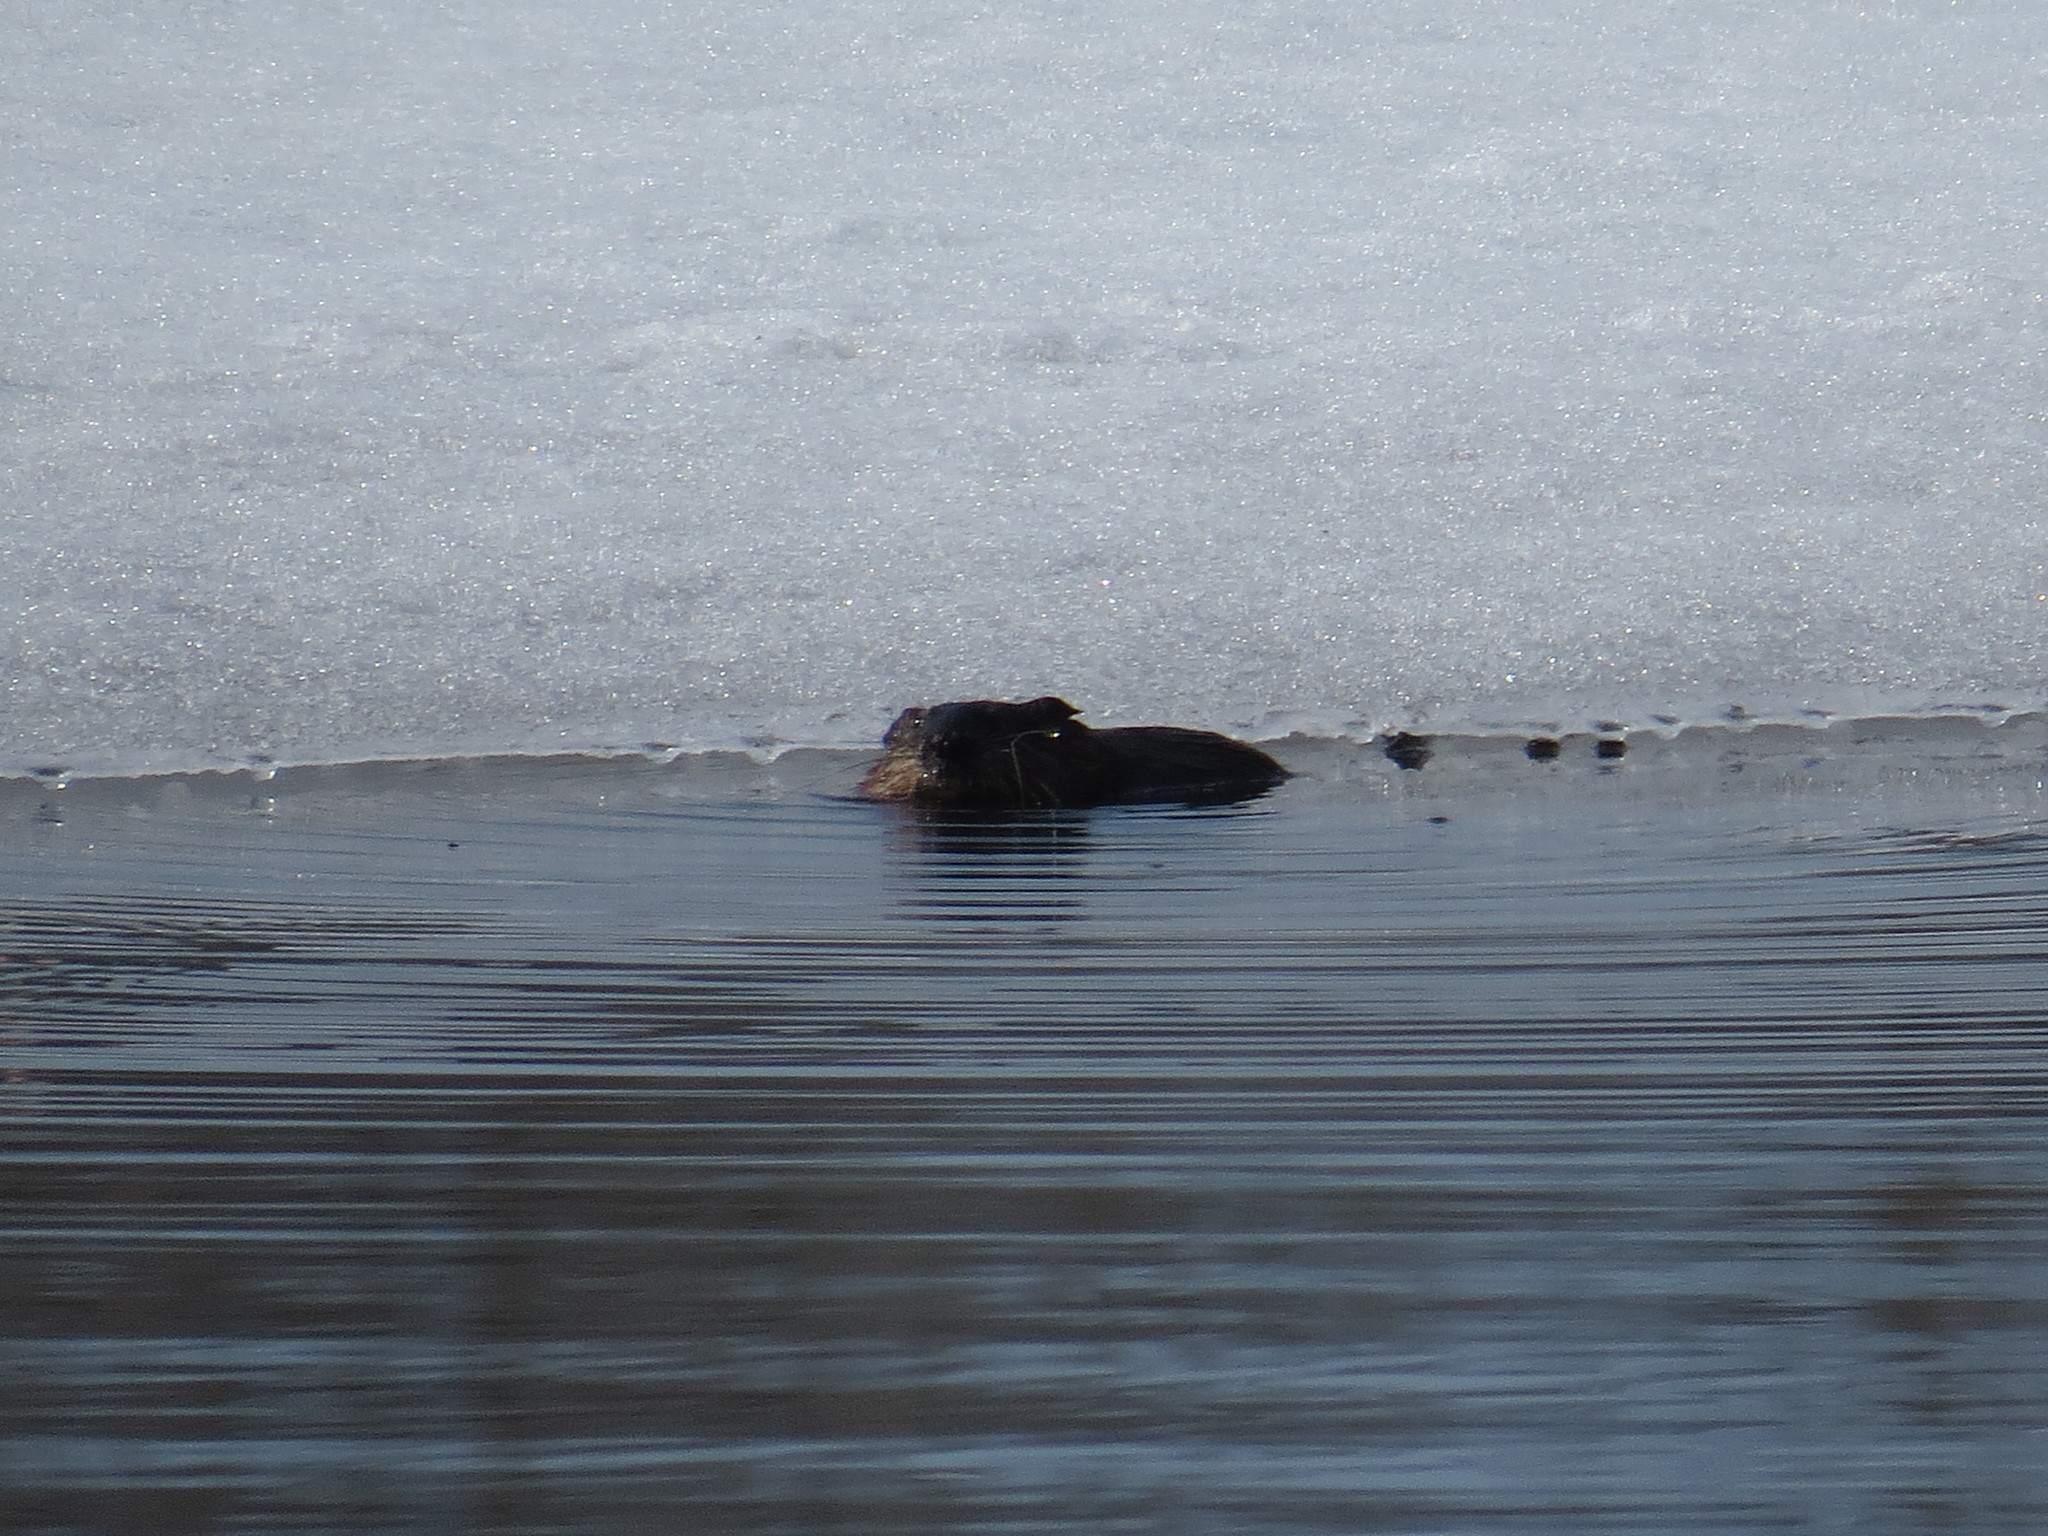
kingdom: Animalia
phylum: Chordata
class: Mammalia
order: Rodentia
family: Cricetidae
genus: Ondatra
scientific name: Ondatra zibethicus
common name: Muskrat
